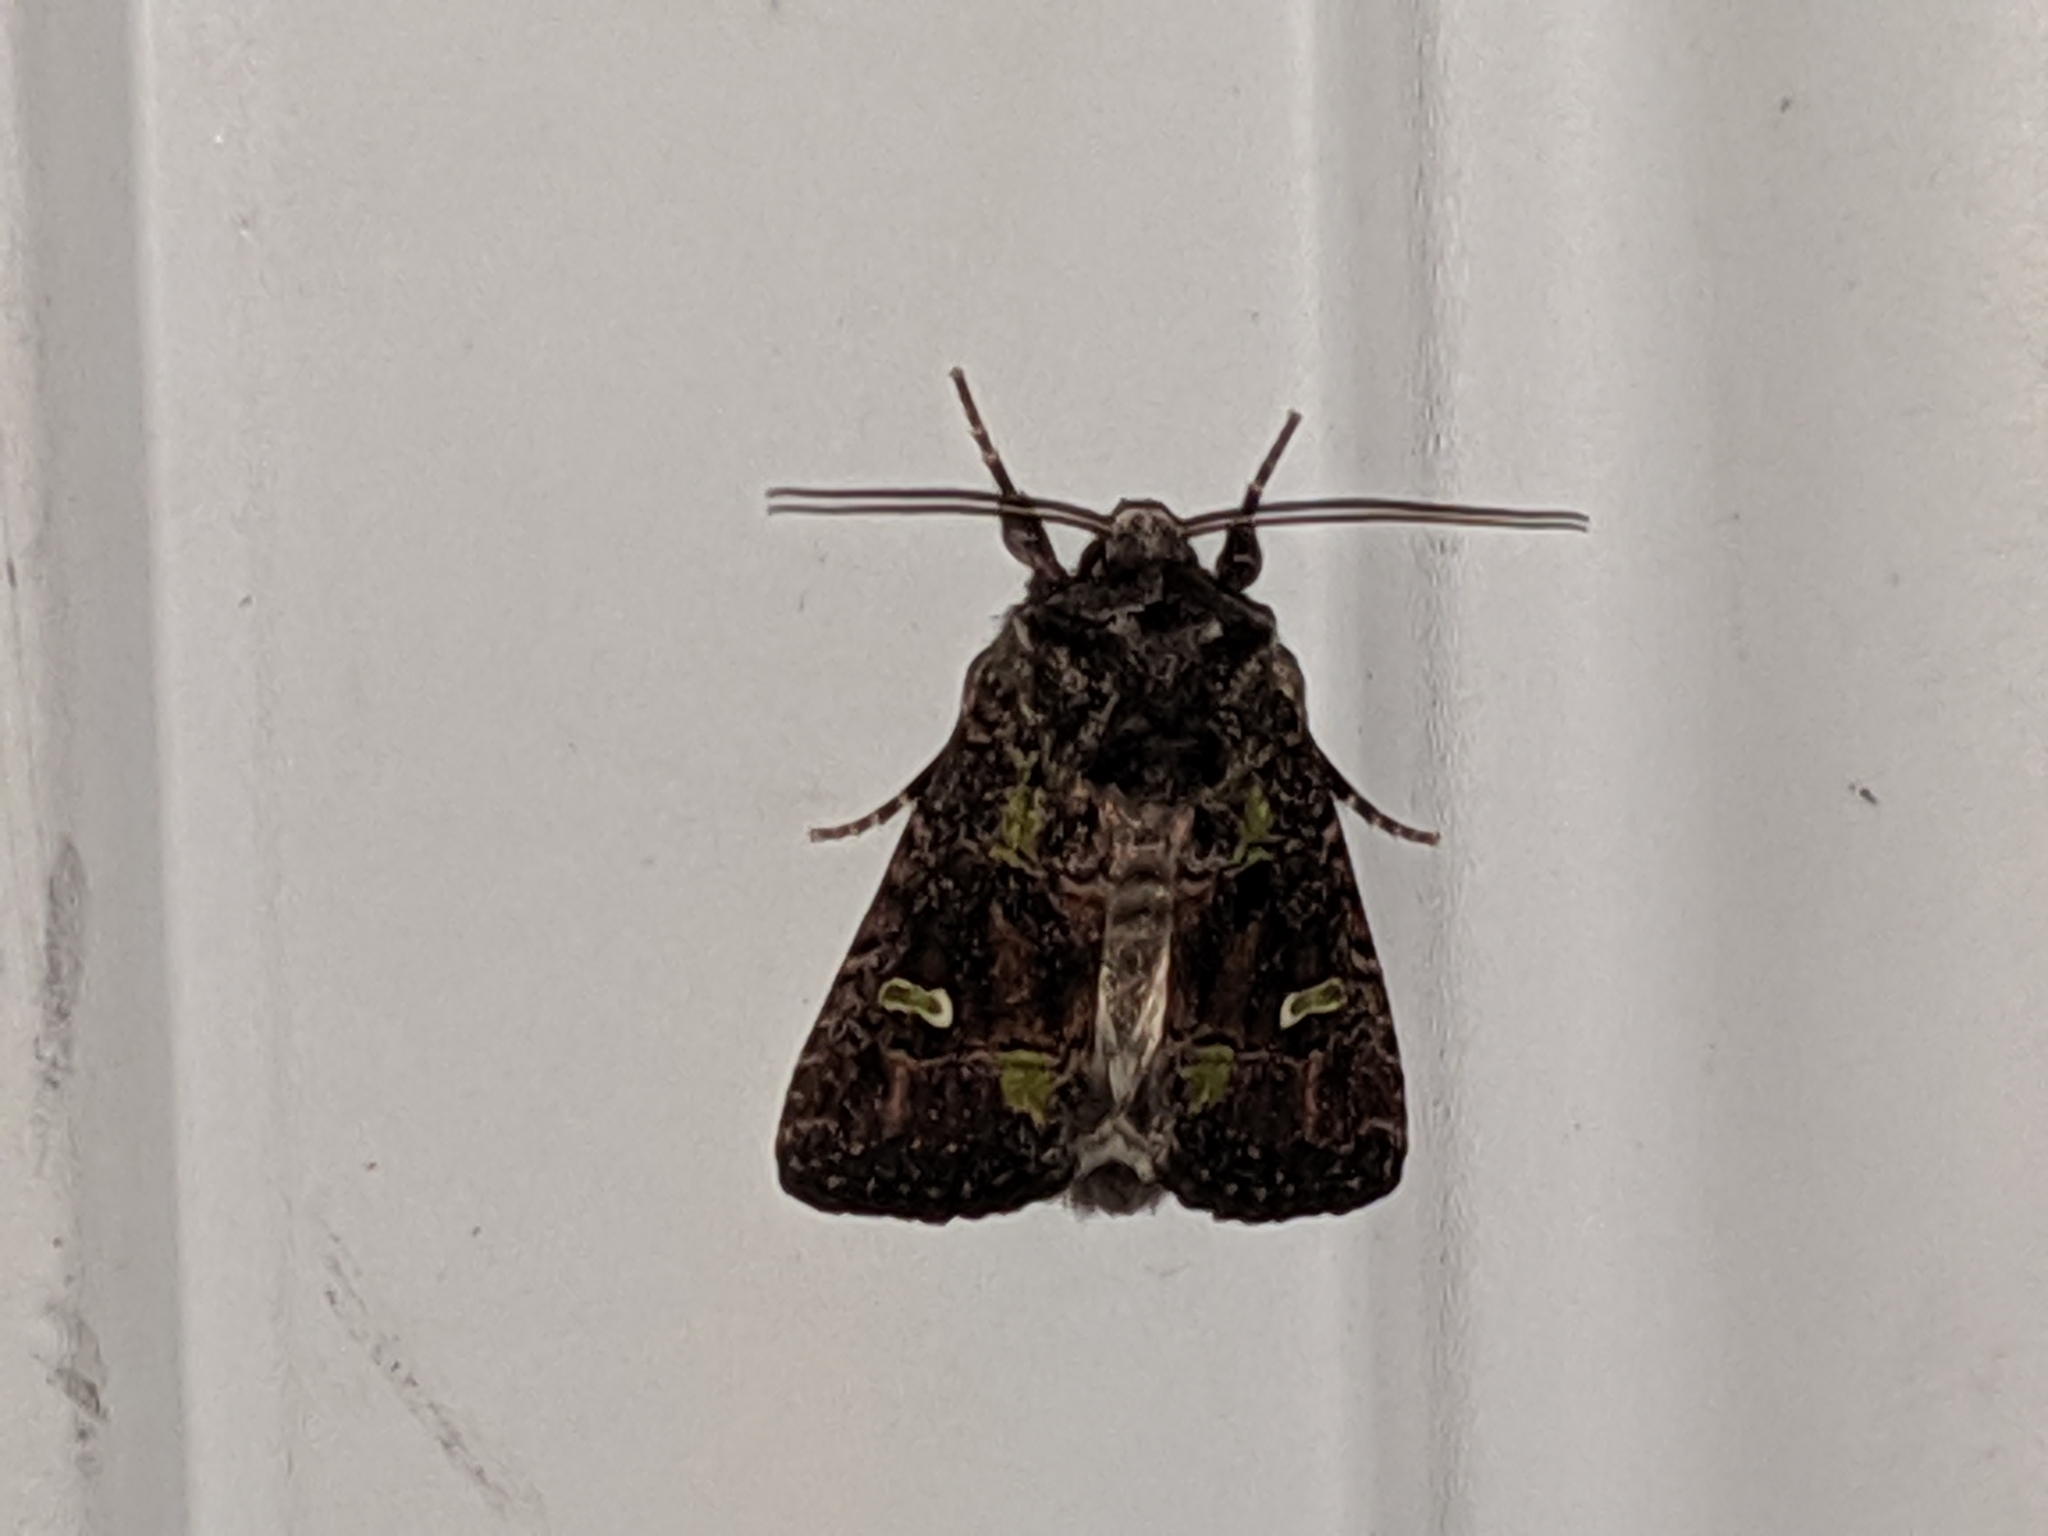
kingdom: Animalia
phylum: Arthropoda
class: Insecta
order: Lepidoptera
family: Noctuidae
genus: Lacinipolia
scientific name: Lacinipolia renigera
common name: Kidney-spotted minor
